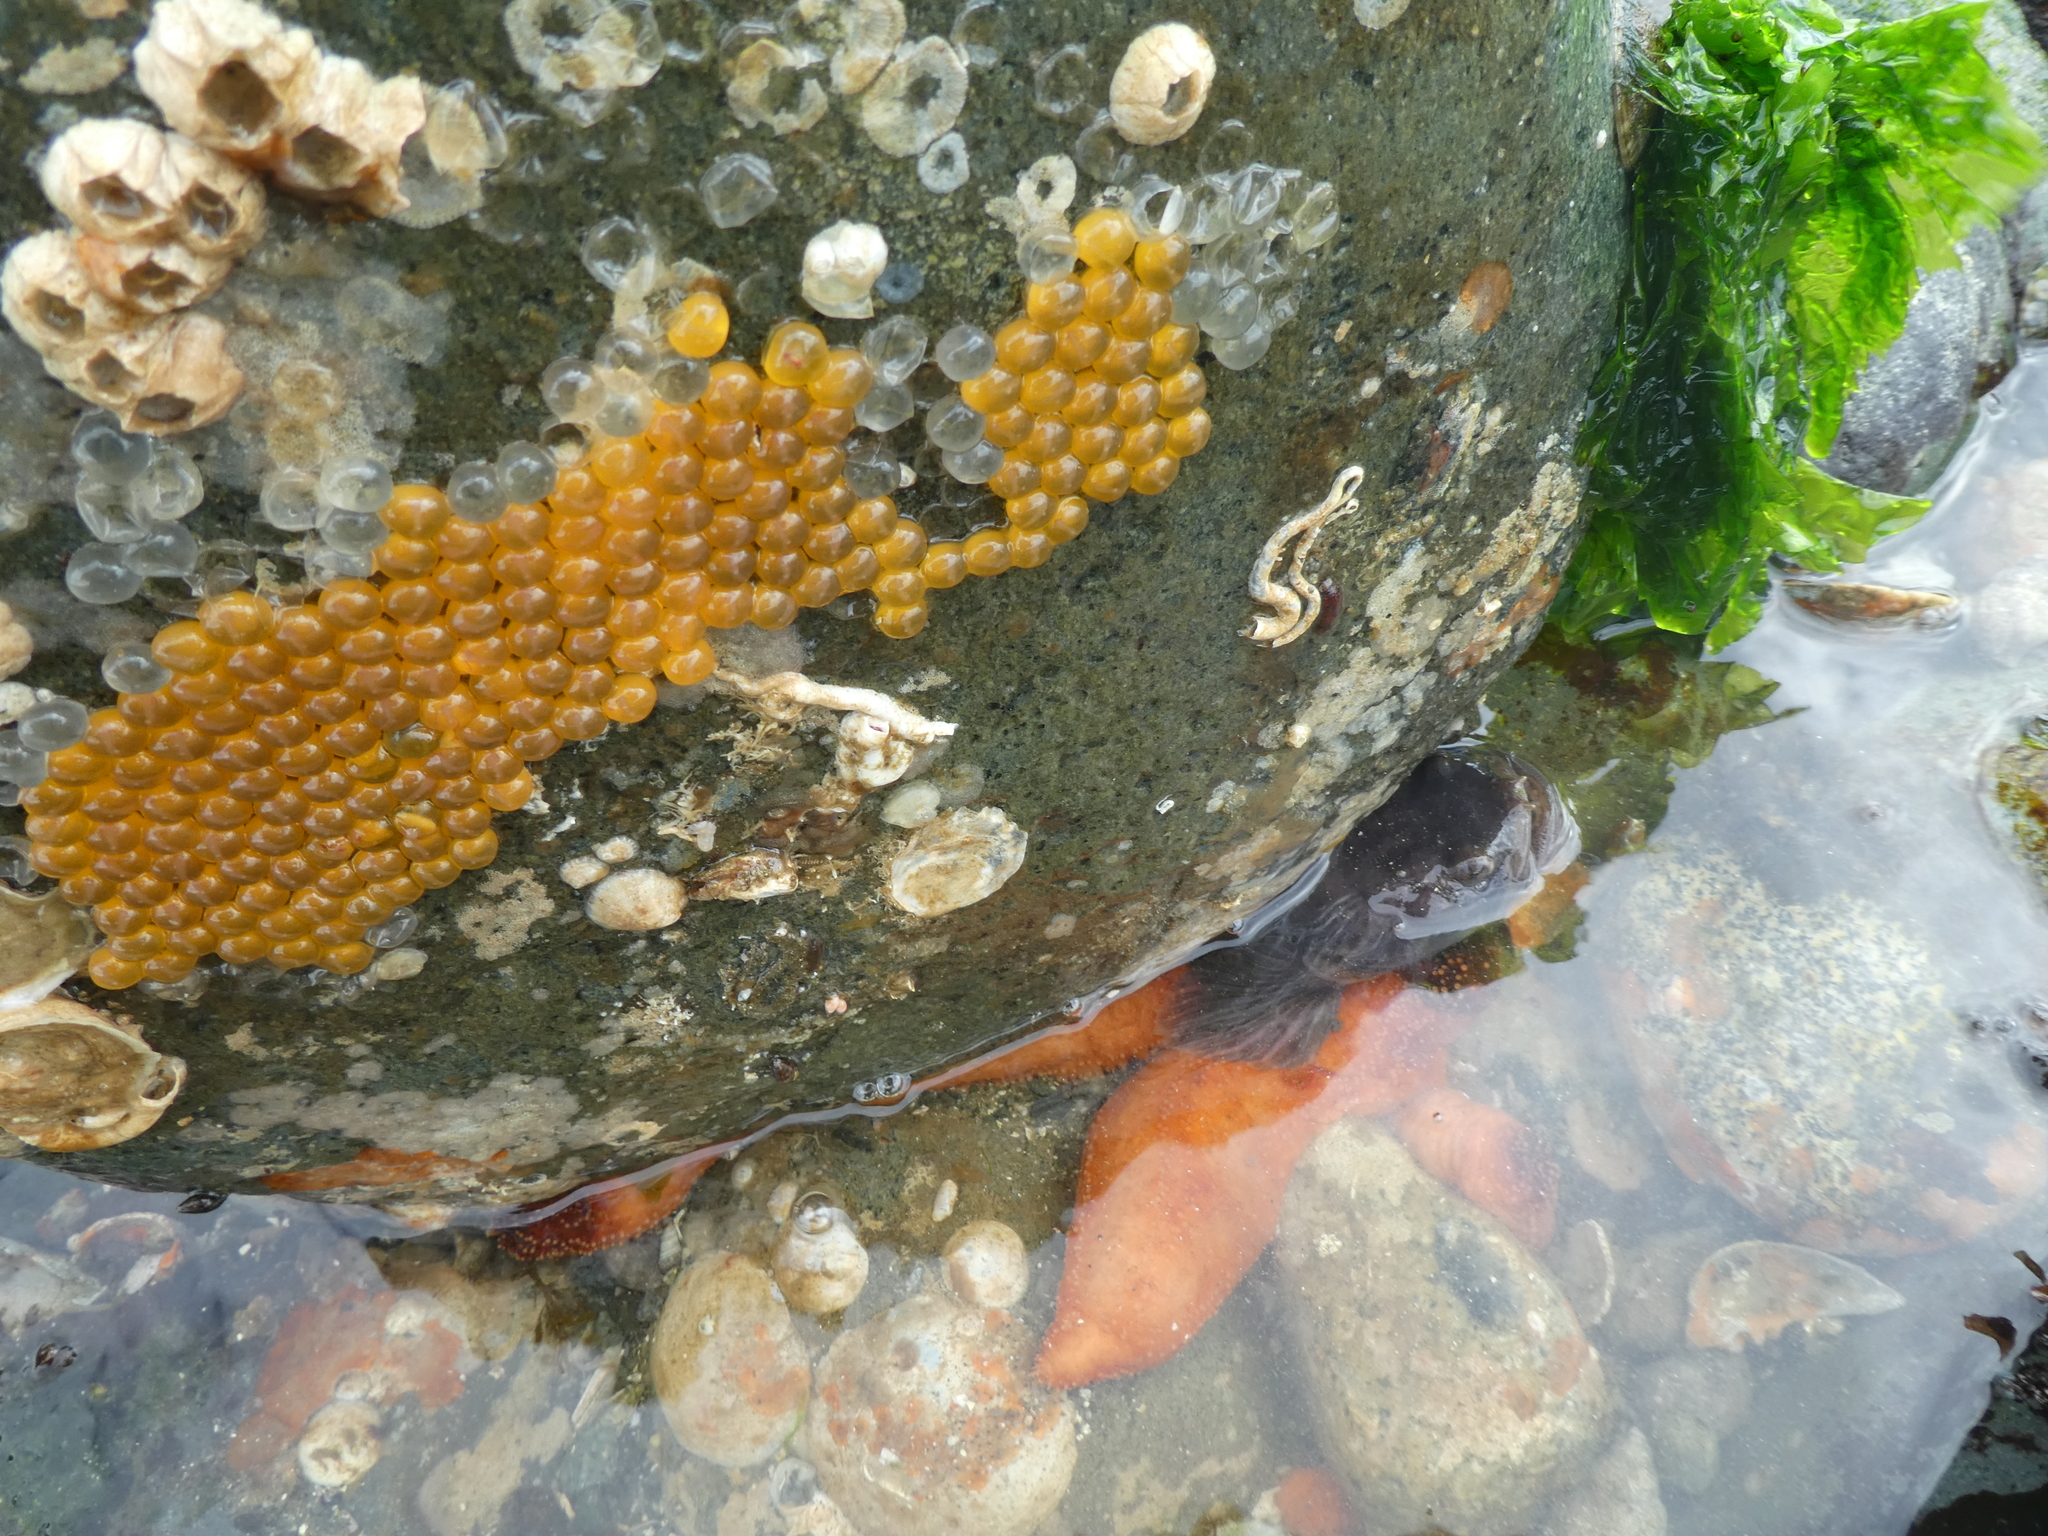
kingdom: Animalia
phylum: Chordata
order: Batrachoidiformes
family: Batrachoididae
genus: Porichthys
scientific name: Porichthys notatus
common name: Plainfin midshipman
